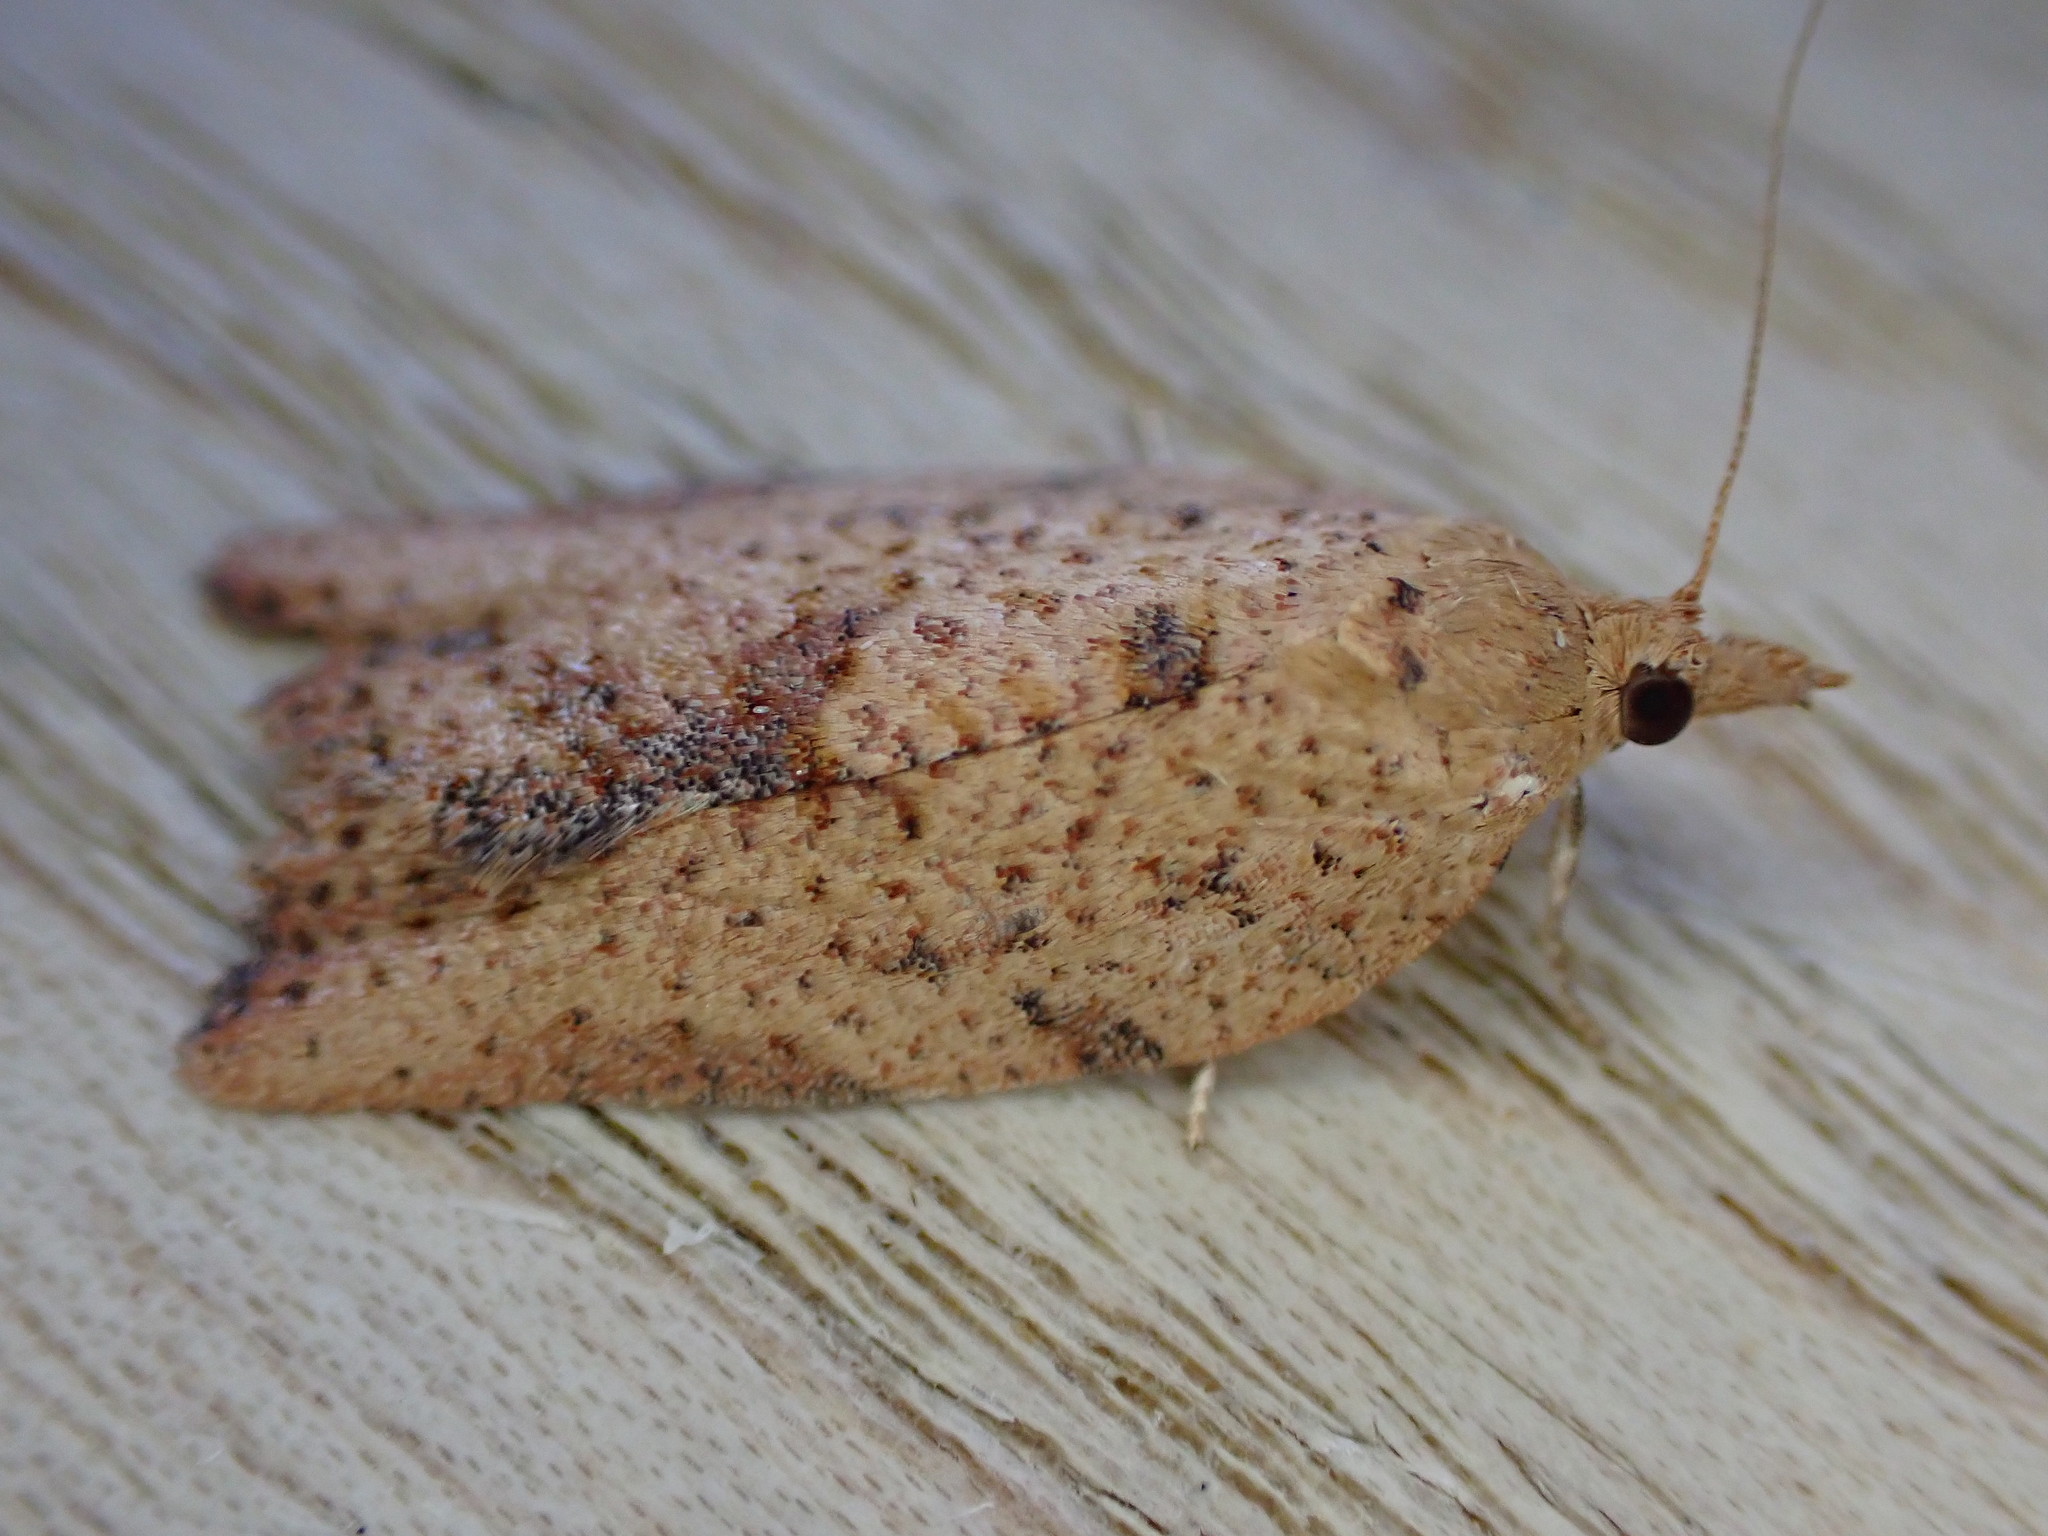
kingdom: Animalia
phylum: Arthropoda
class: Insecta
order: Lepidoptera
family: Tortricidae
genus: Epiphyas
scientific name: Epiphyas postvittana
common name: Light brown apple moth
